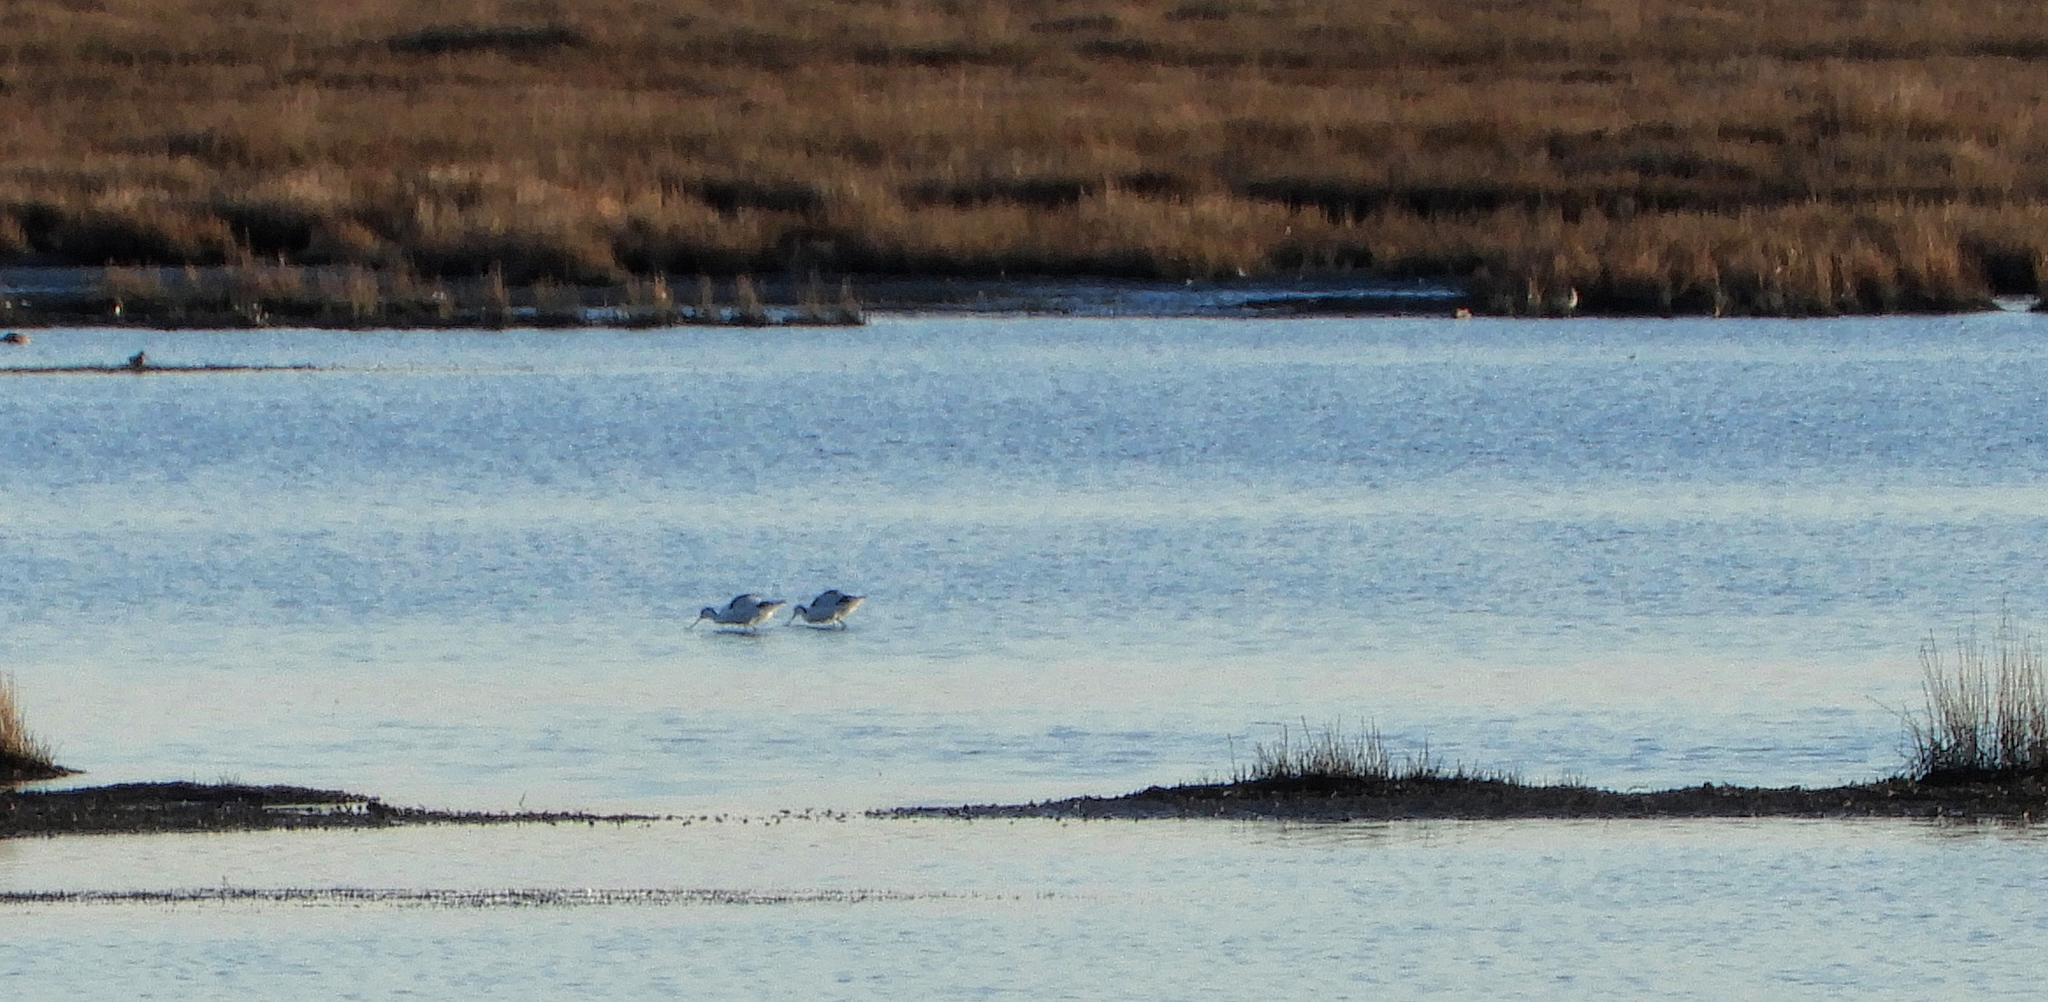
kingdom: Animalia
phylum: Chordata
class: Aves
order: Charadriiformes
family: Recurvirostridae
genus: Recurvirostra
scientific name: Recurvirostra avosetta
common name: Pied avocet
